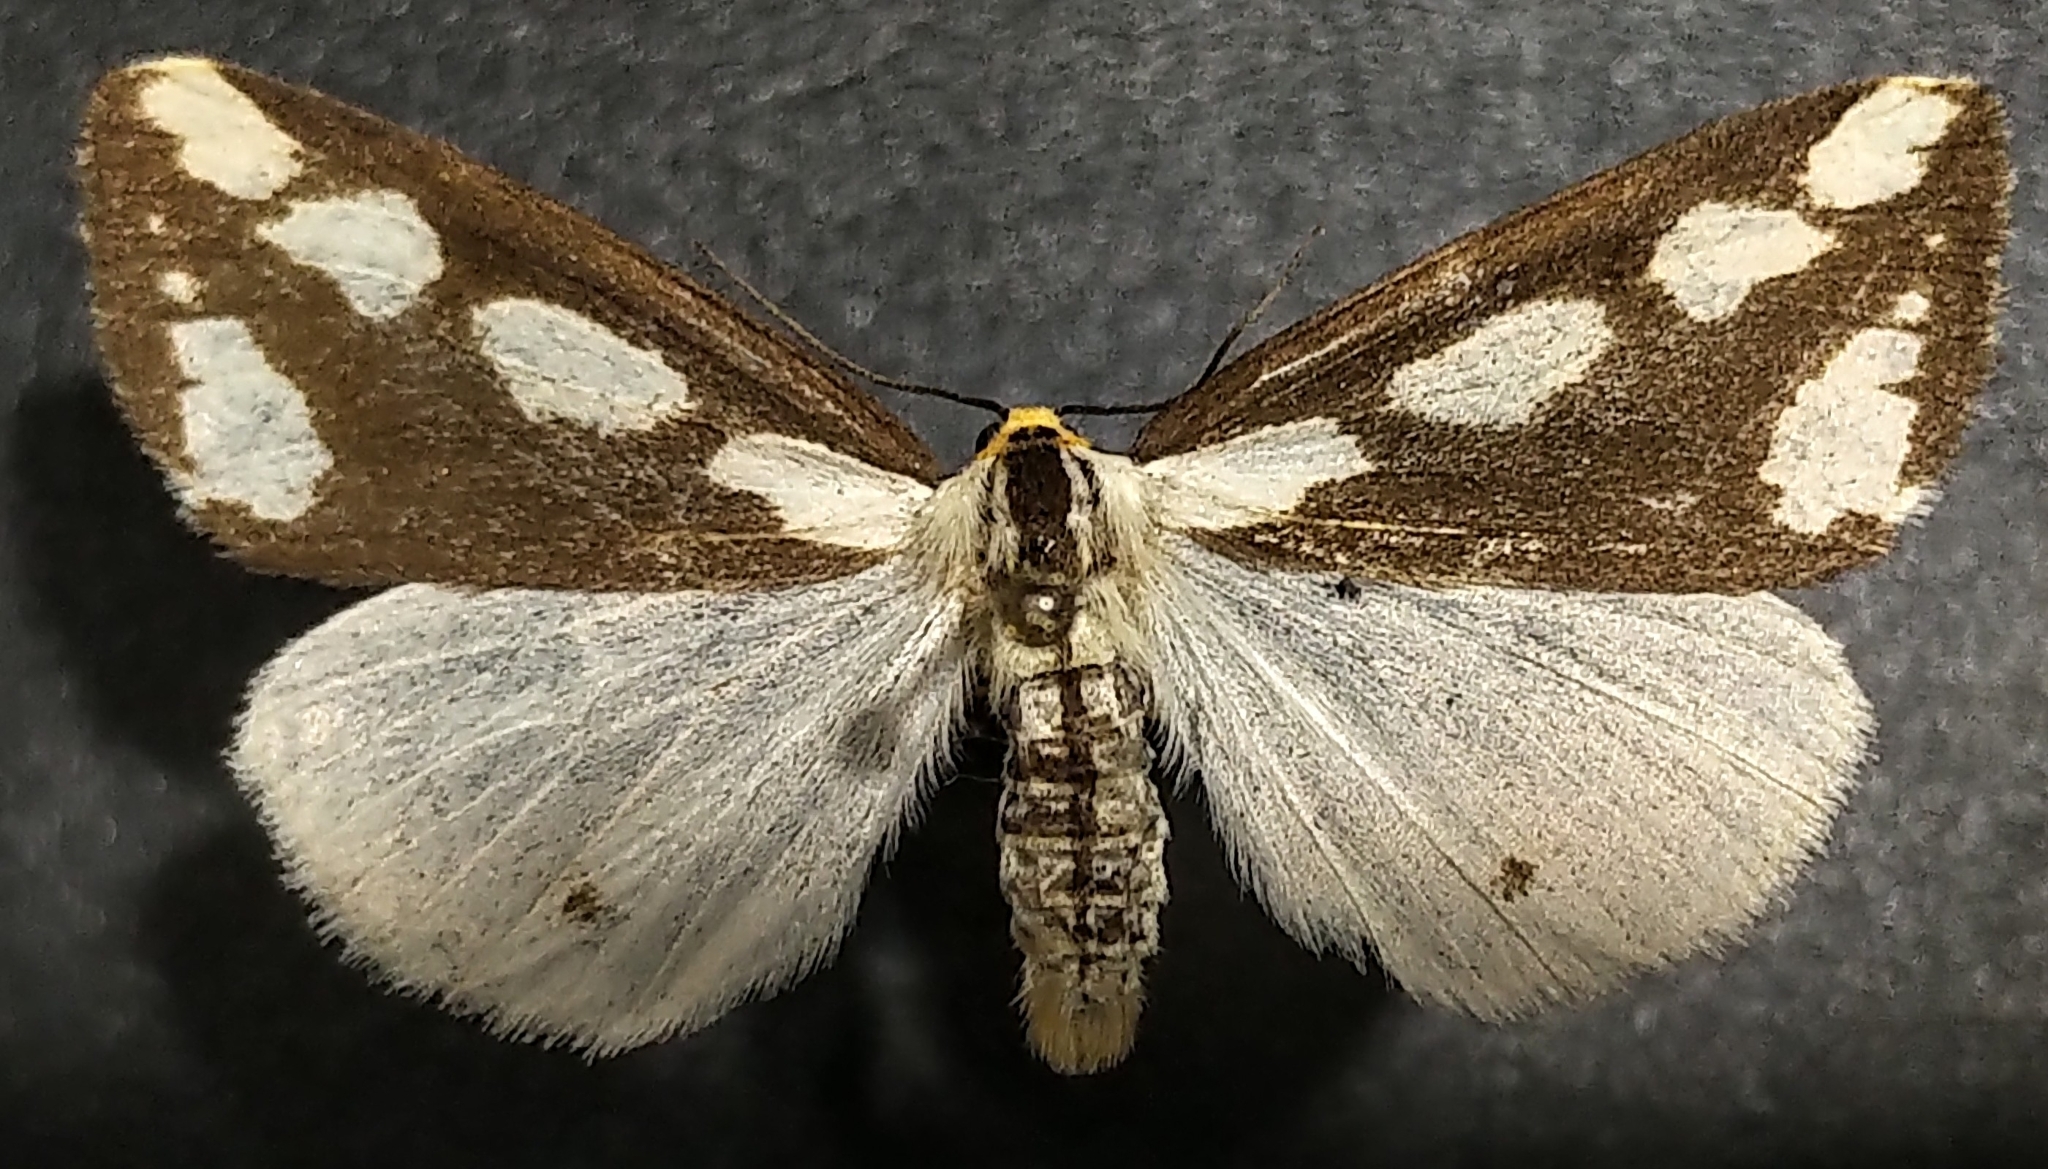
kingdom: Animalia
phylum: Arthropoda
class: Insecta
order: Lepidoptera
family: Erebidae
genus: Haploa
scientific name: Haploa lecontei
